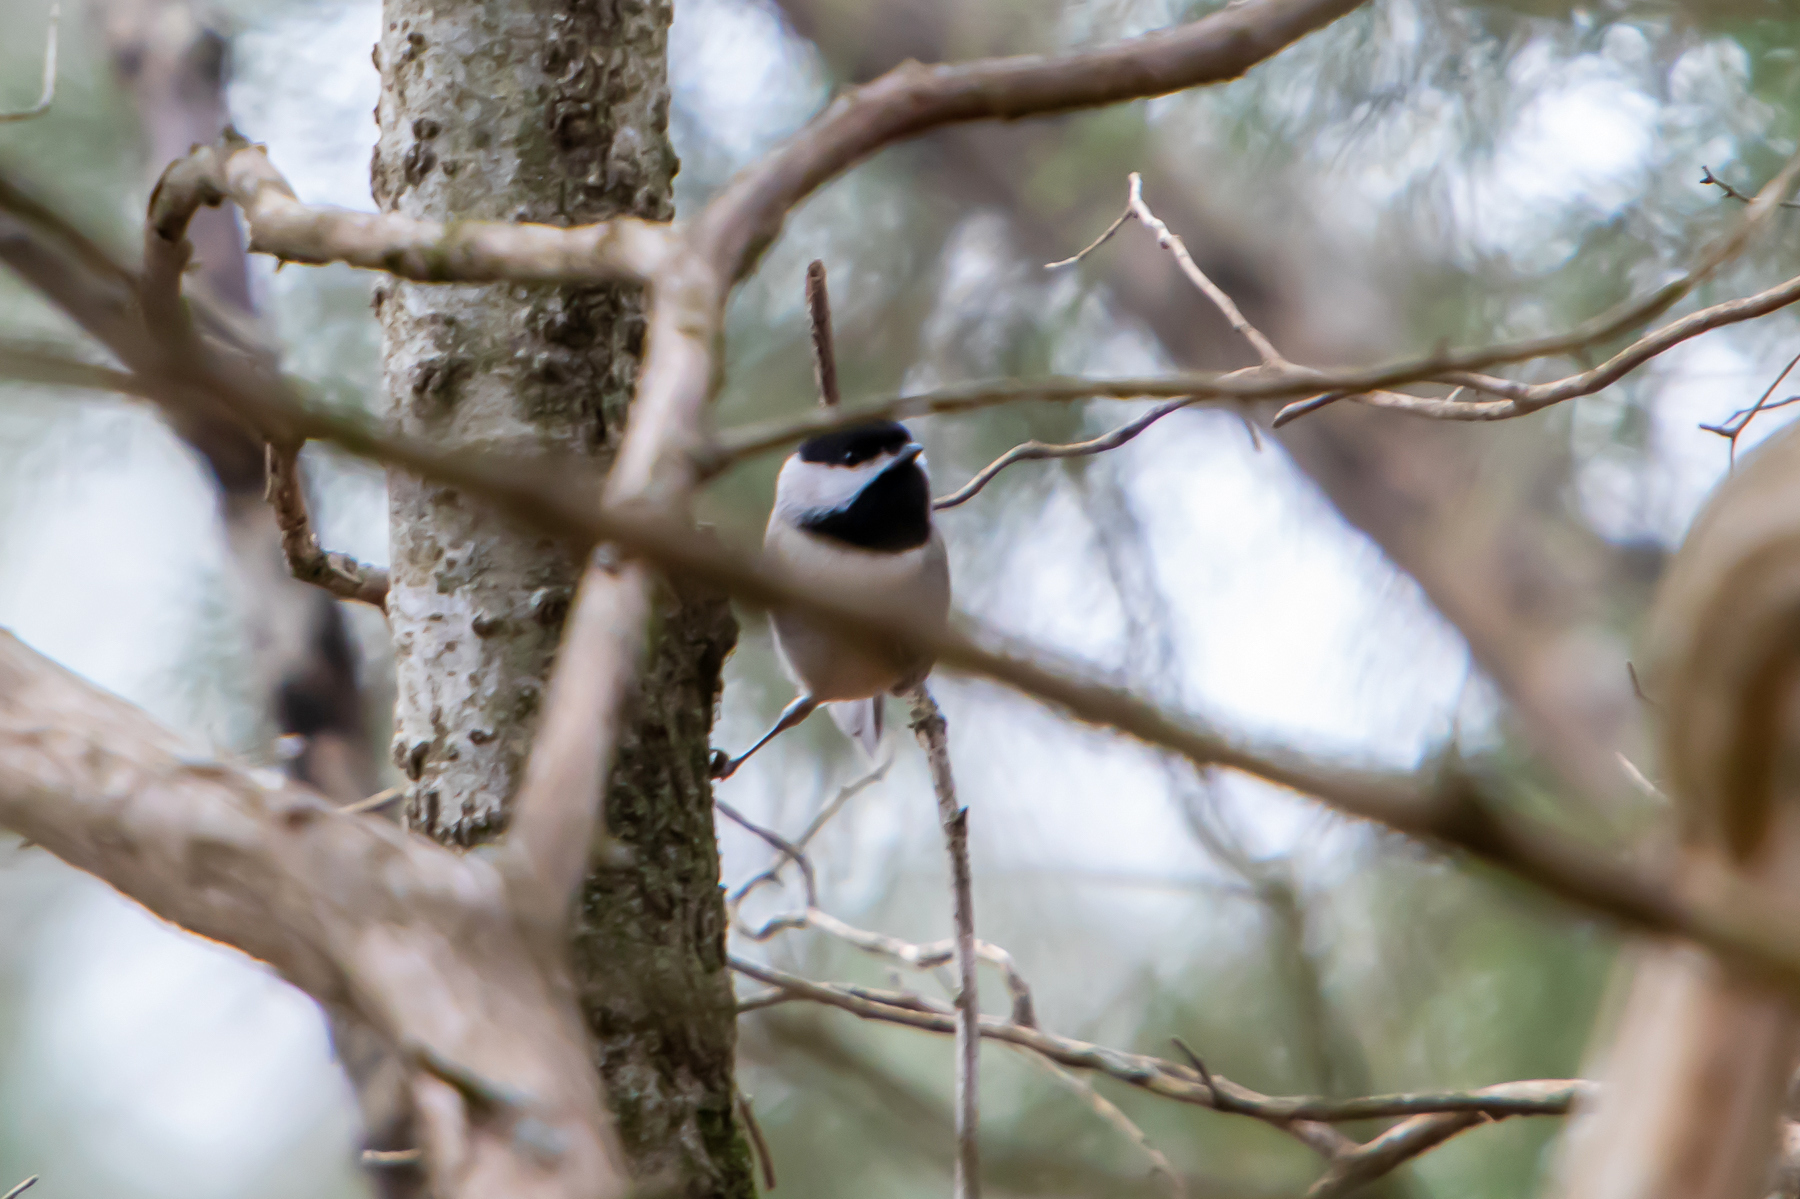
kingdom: Animalia
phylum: Chordata
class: Aves
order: Passeriformes
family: Paridae
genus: Poecile
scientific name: Poecile carolinensis
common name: Carolina chickadee
